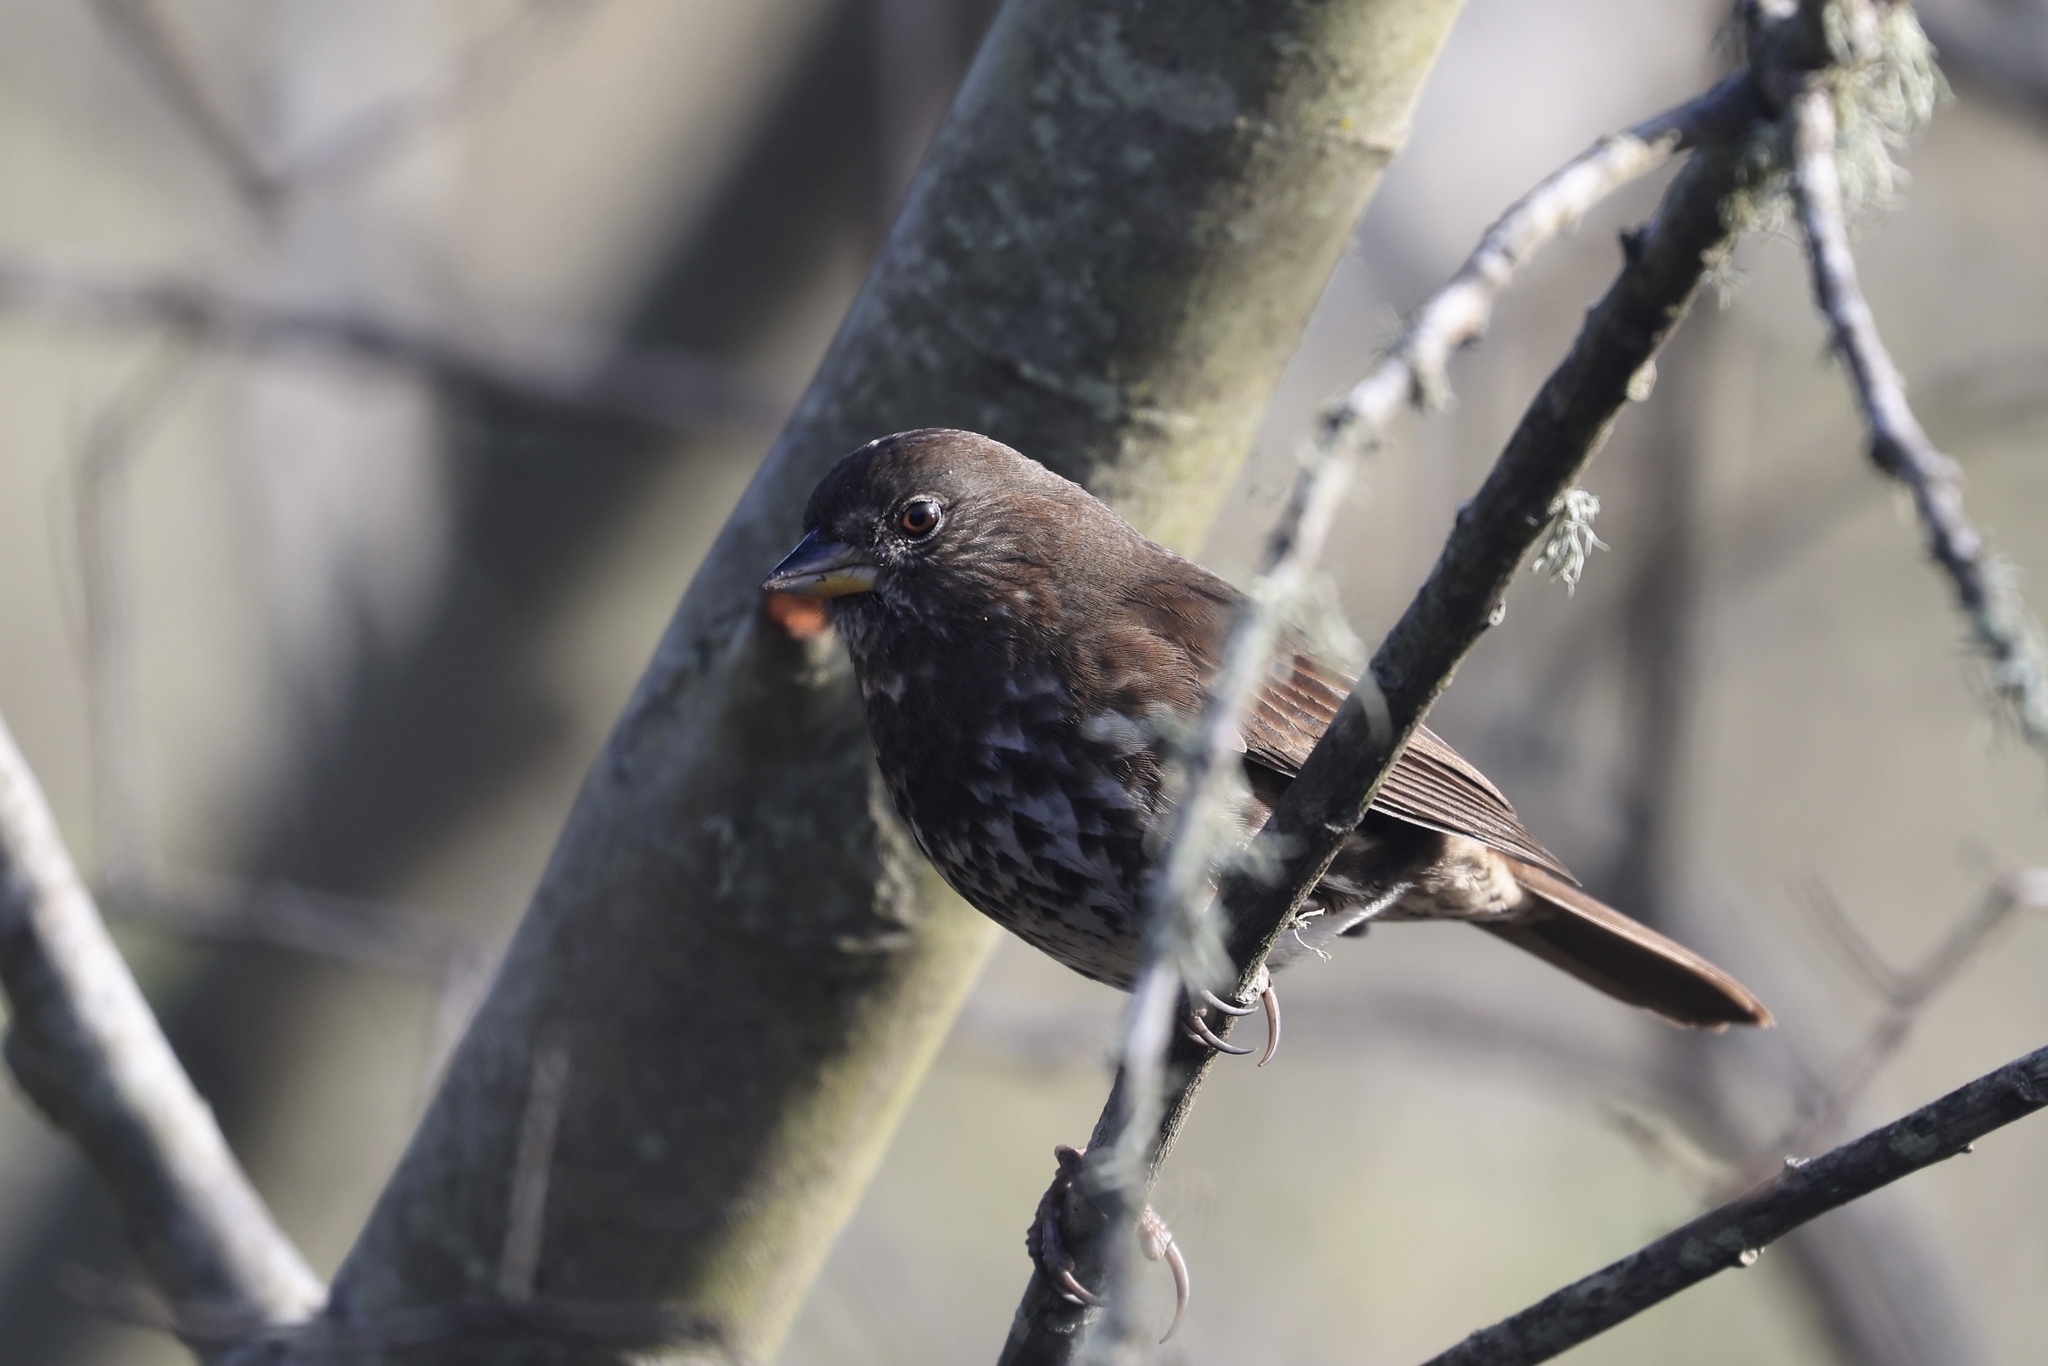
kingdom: Animalia
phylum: Chordata
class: Aves
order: Passeriformes
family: Passerellidae
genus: Passerella
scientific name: Passerella iliaca
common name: Fox sparrow
